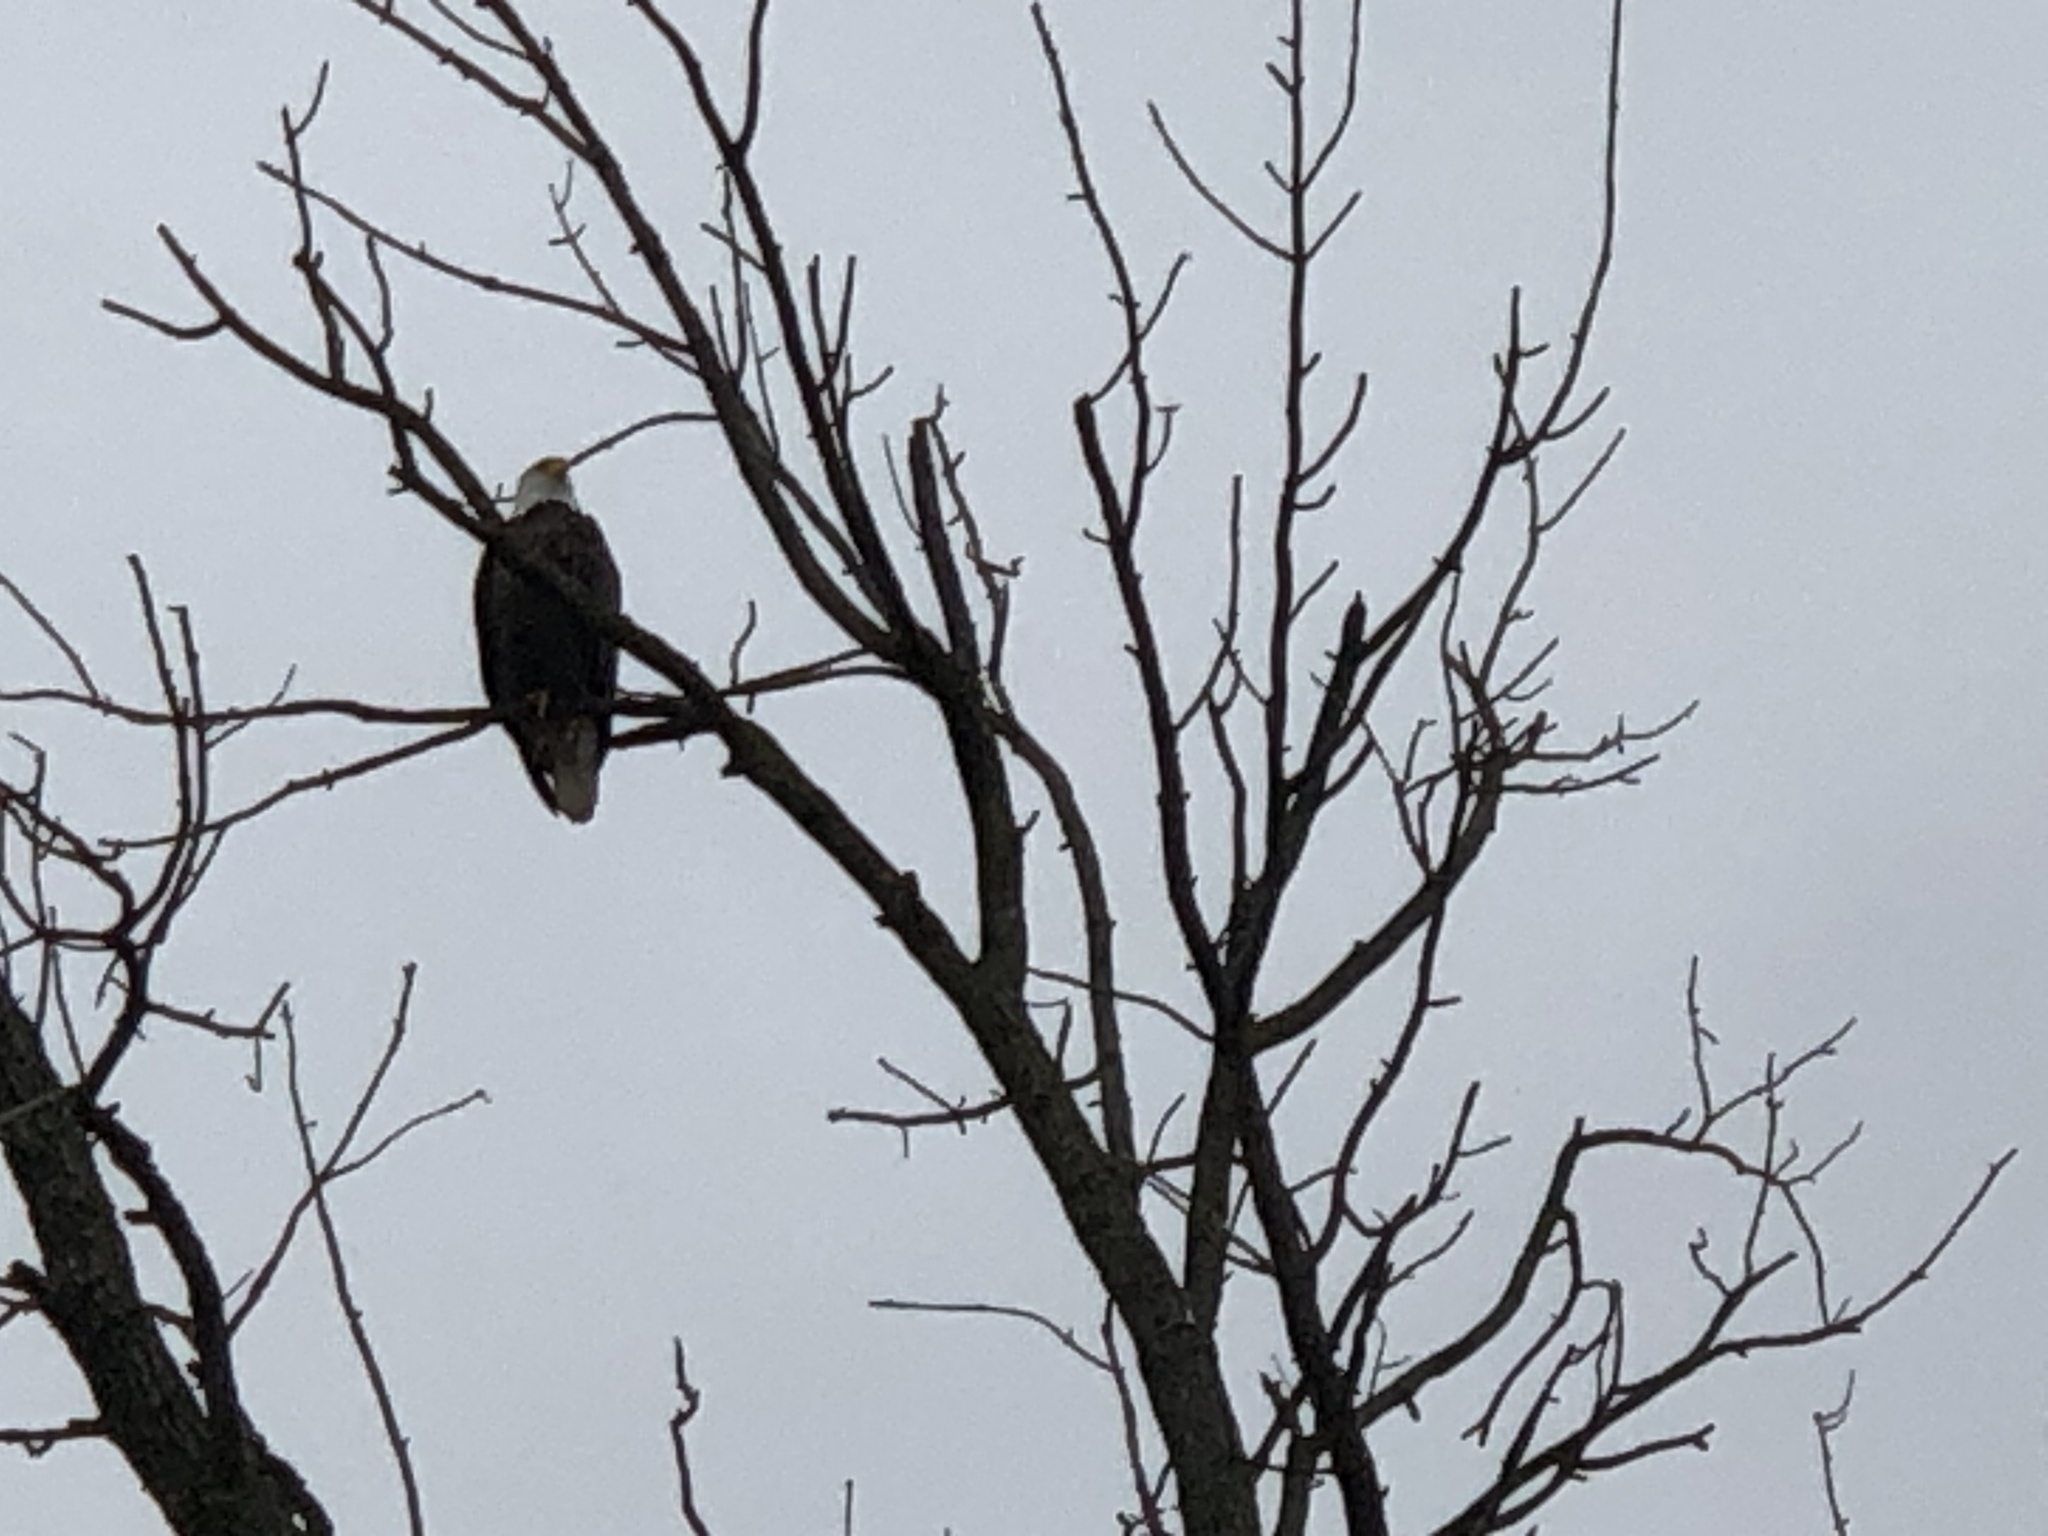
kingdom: Animalia
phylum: Chordata
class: Aves
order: Accipitriformes
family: Accipitridae
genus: Haliaeetus
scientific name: Haliaeetus leucocephalus
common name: Bald eagle
